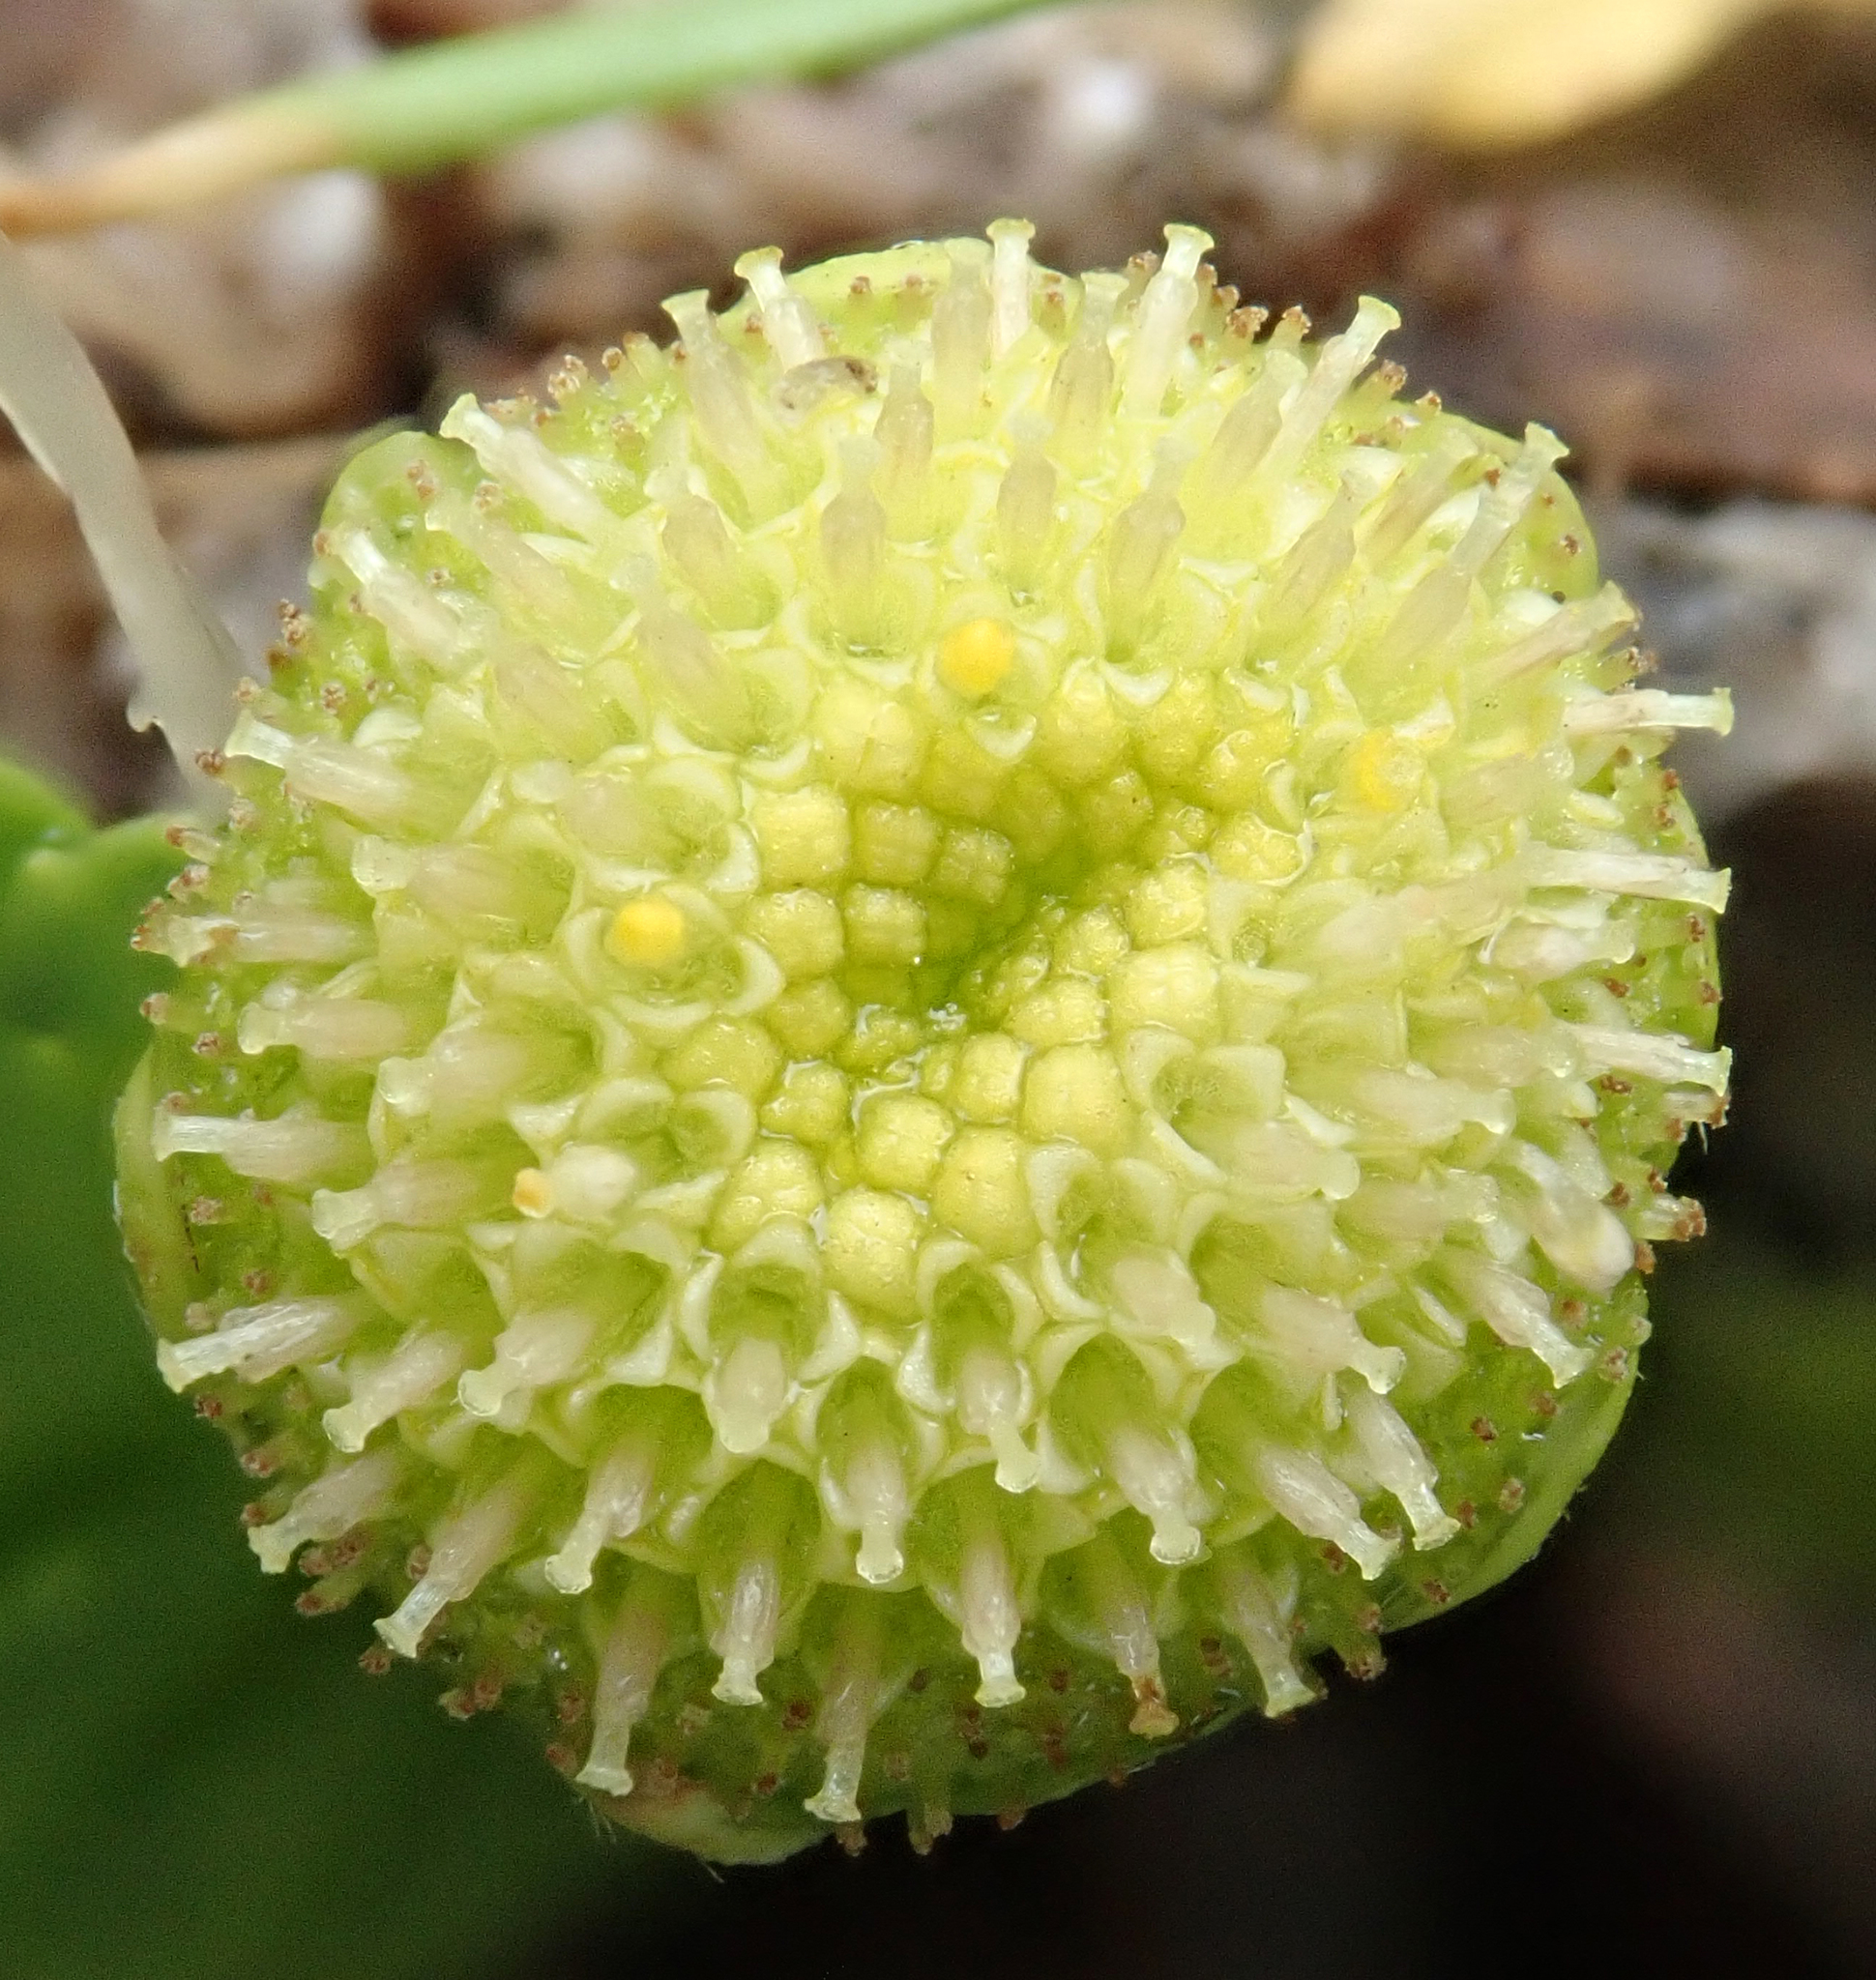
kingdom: Plantae
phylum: Tracheophyta
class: Magnoliopsida
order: Asterales
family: Asteraceae
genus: Leptinella
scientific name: Leptinella potentillina
